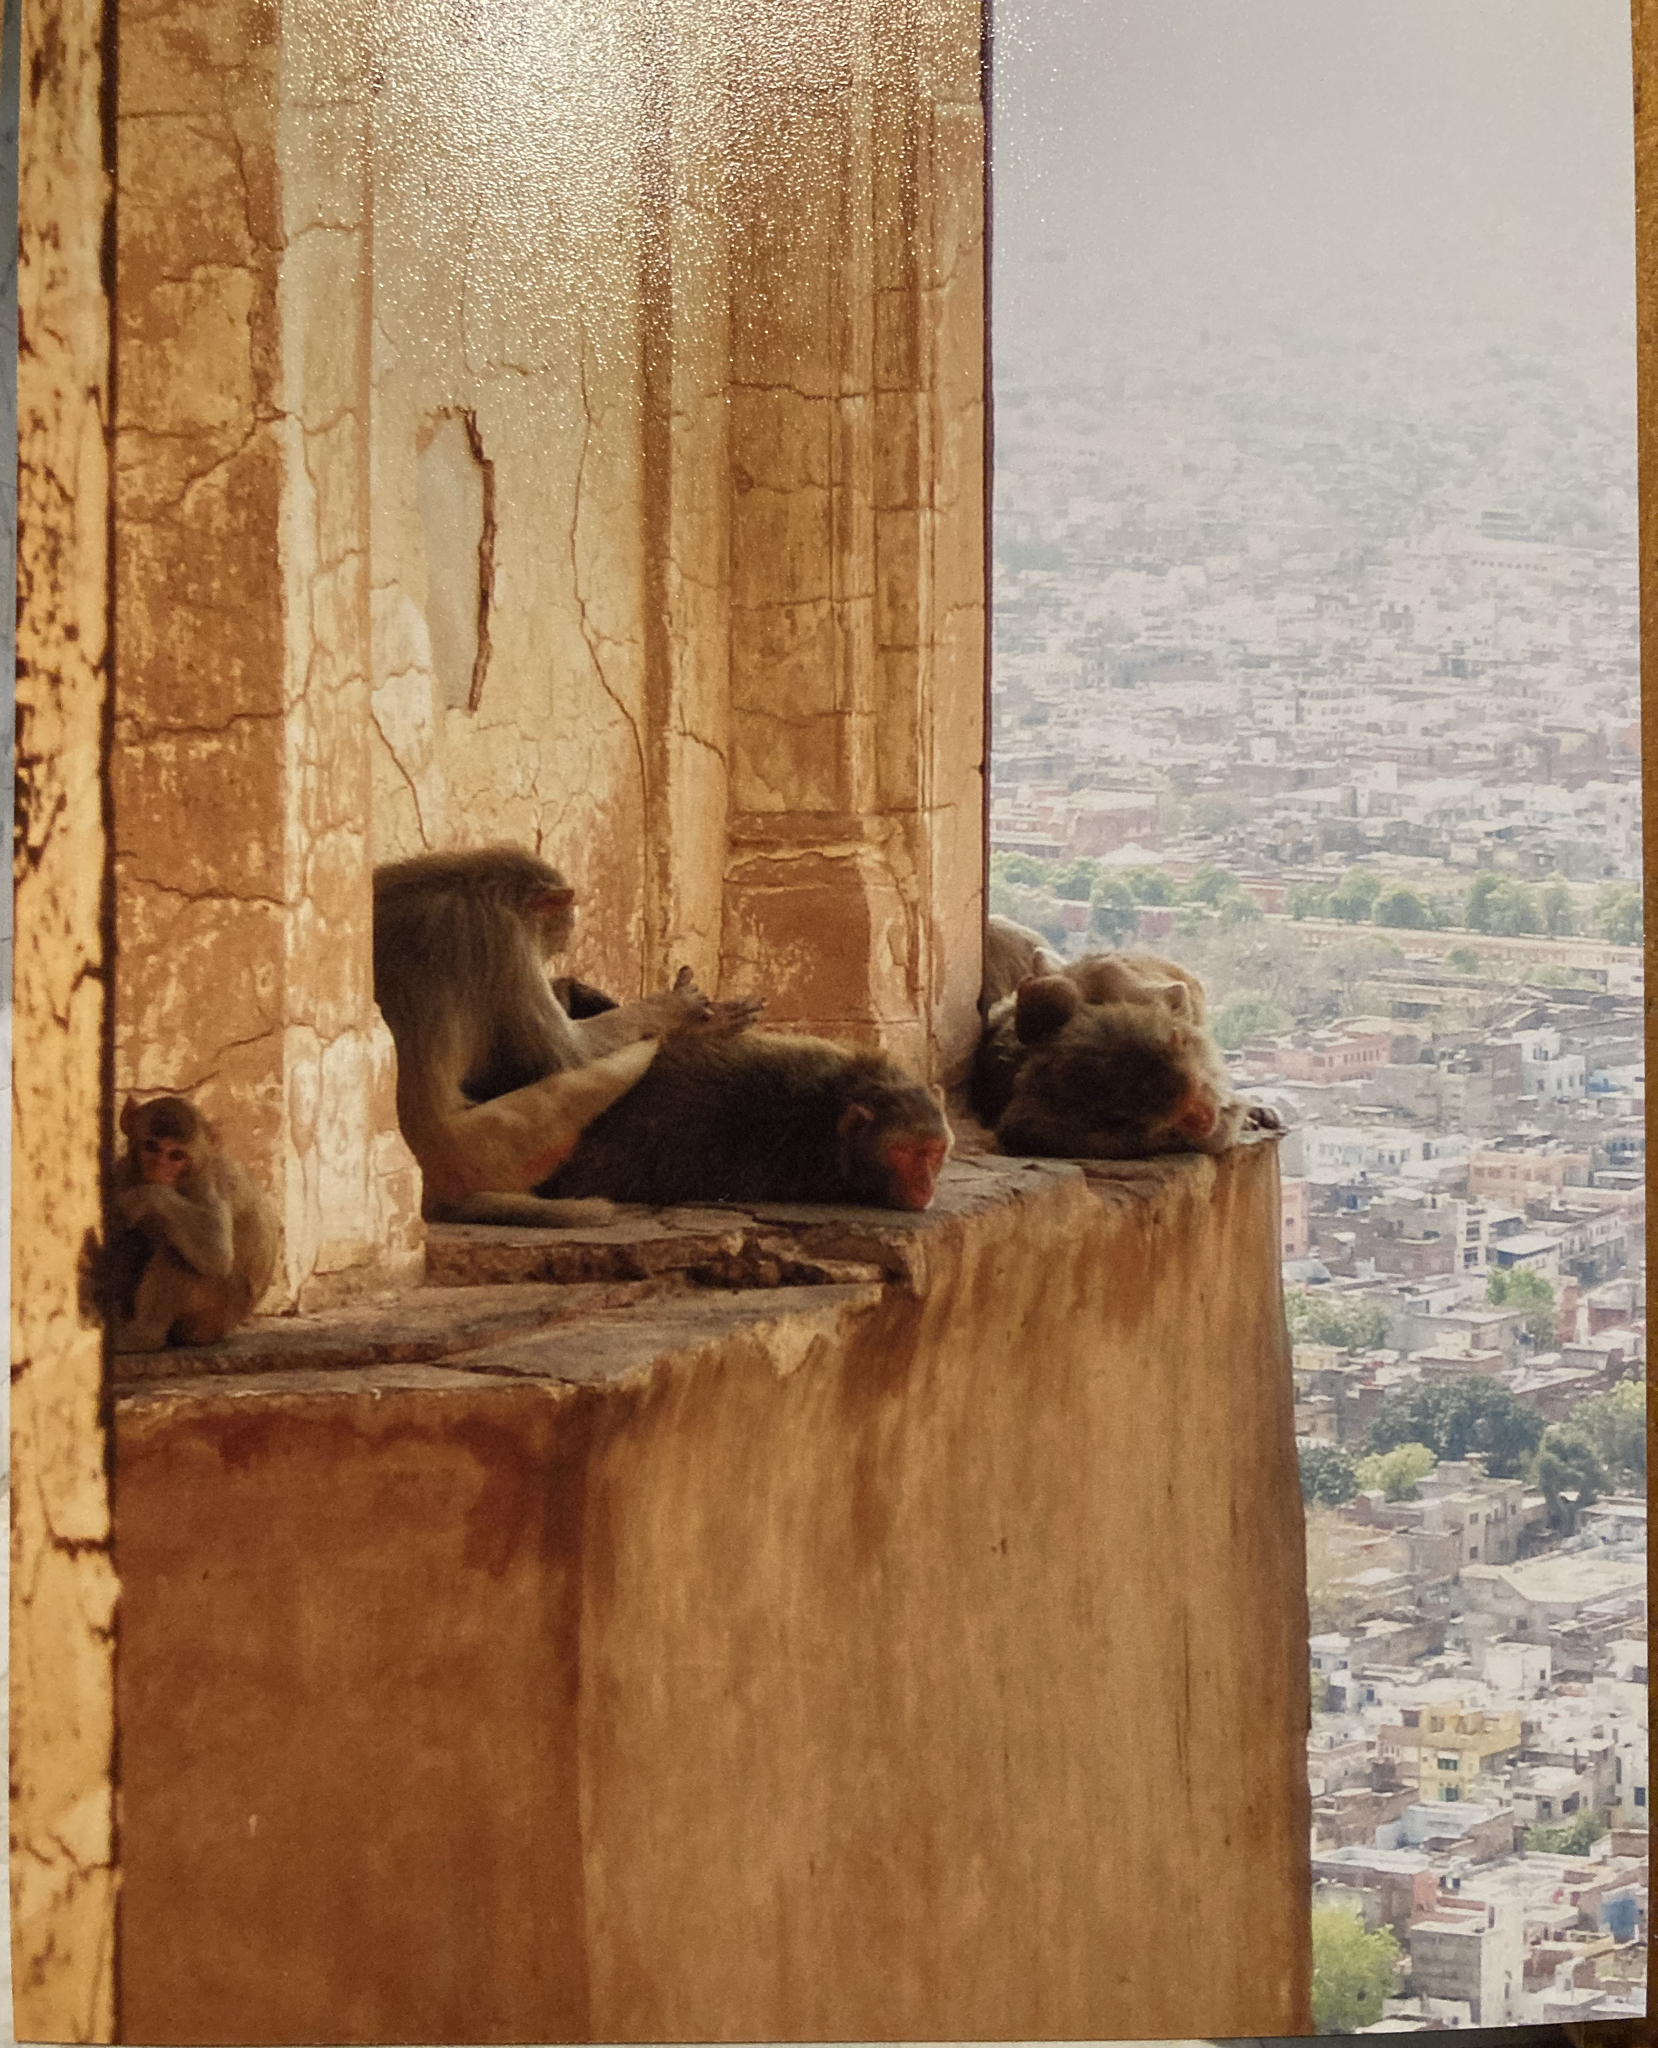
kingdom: Animalia
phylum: Chordata
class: Mammalia
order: Primates
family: Cercopithecidae
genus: Macaca
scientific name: Macaca mulatta
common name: Rhesus monkey
